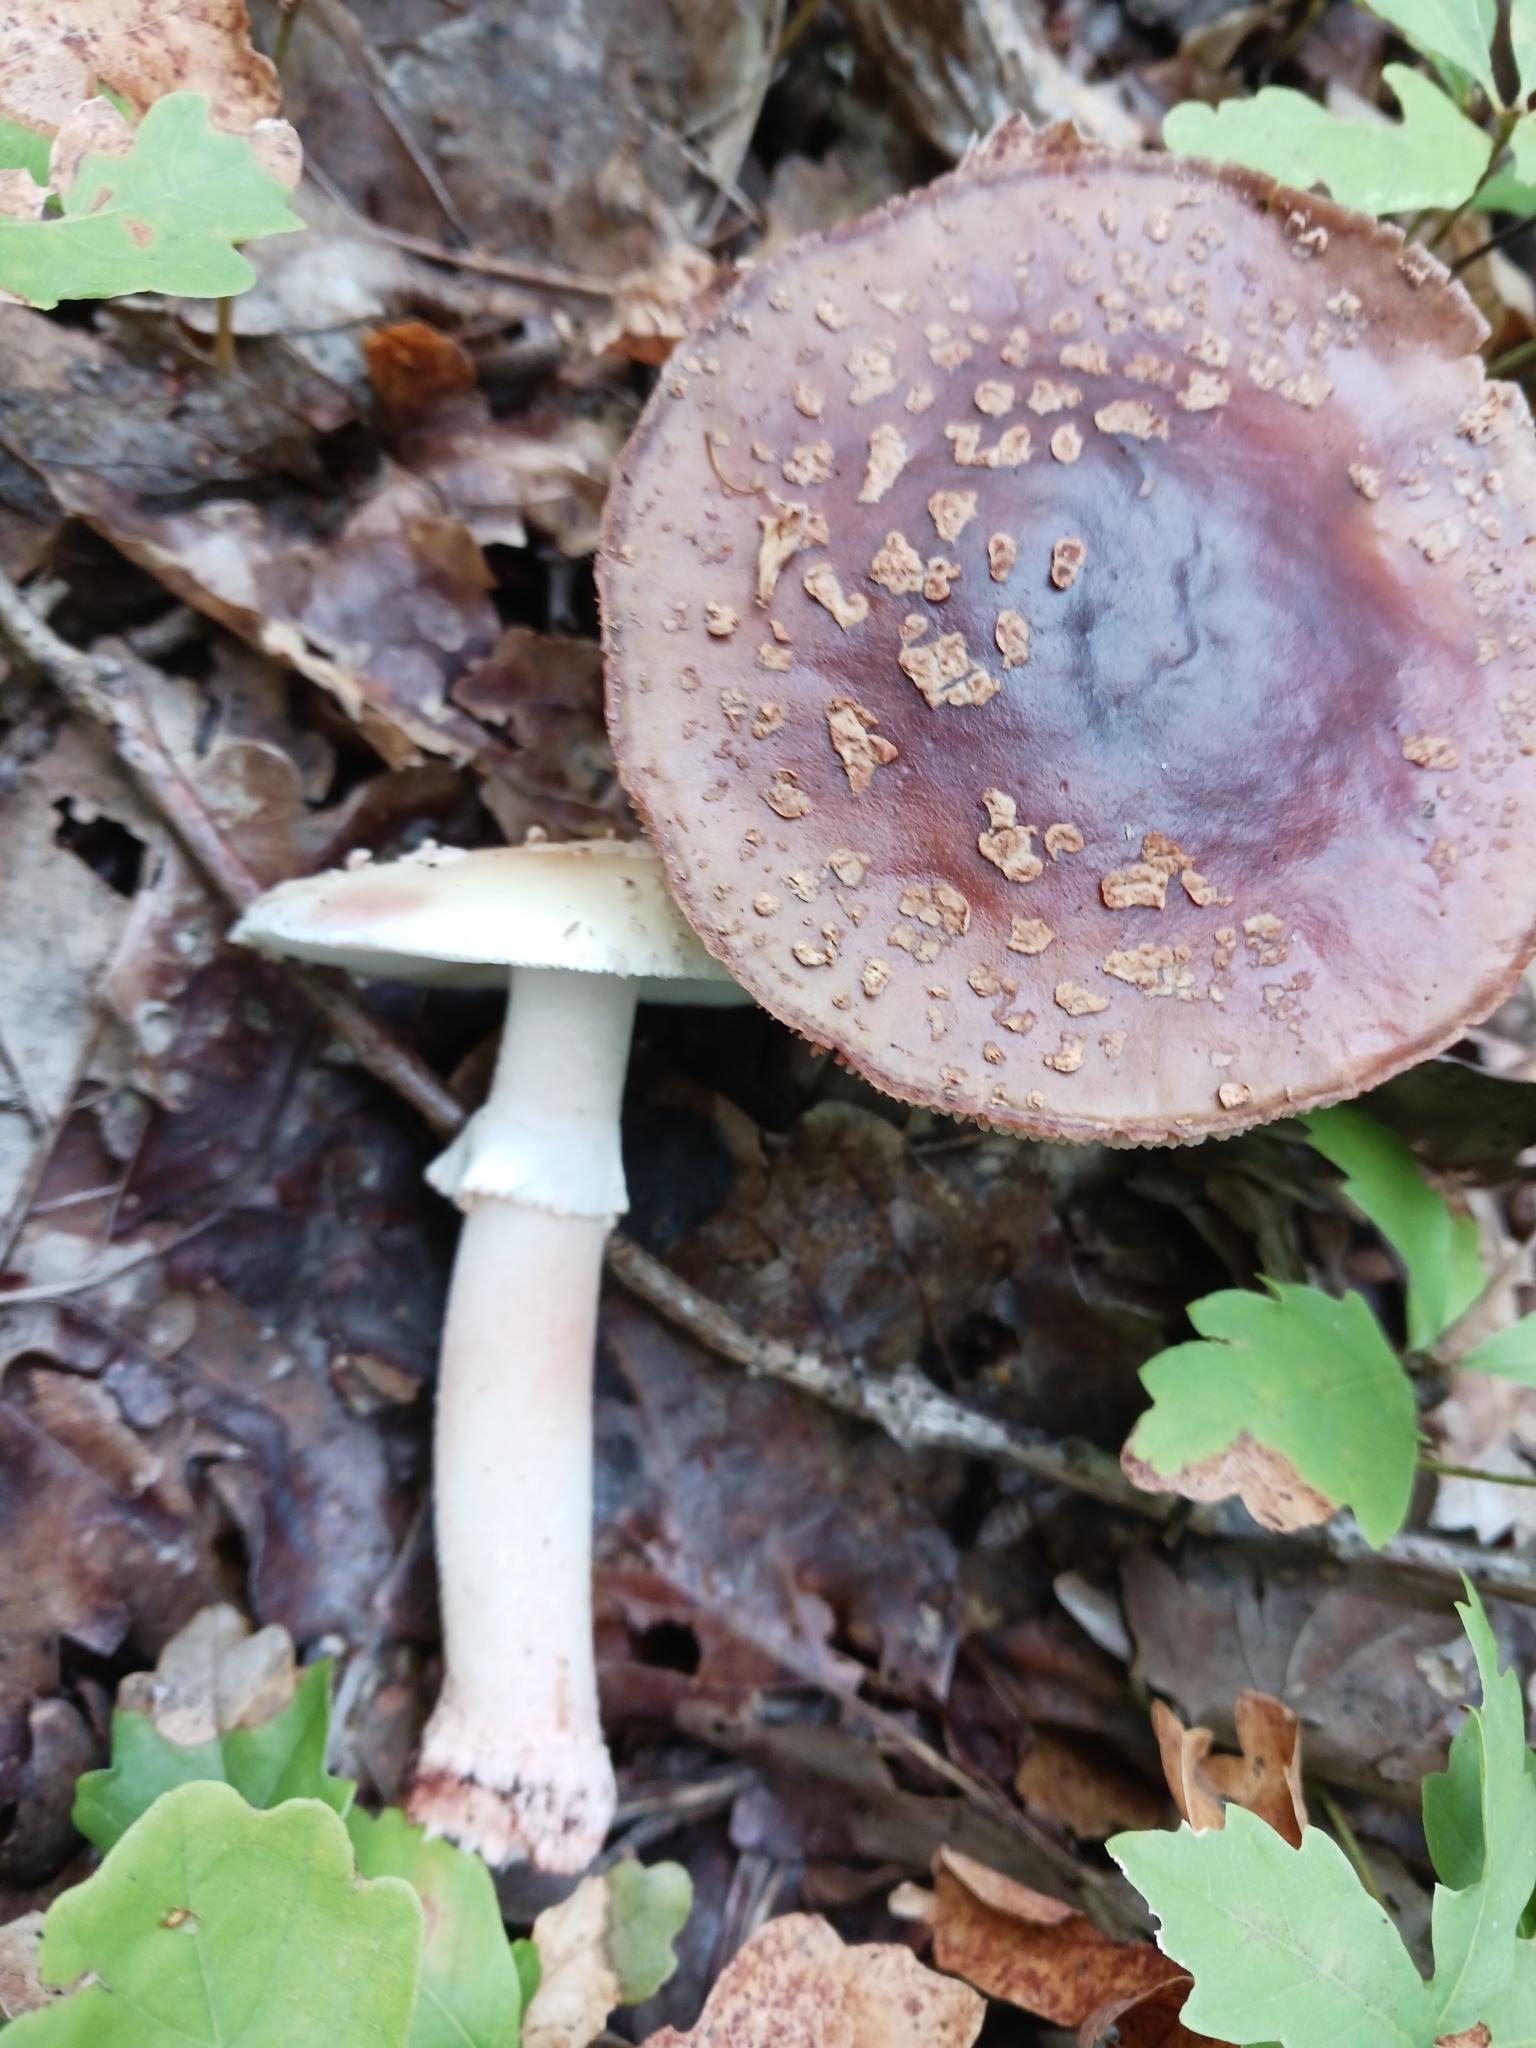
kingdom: Fungi
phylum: Basidiomycota
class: Agaricomycetes
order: Agaricales
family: Amanitaceae
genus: Amanita
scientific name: Amanita rubescens
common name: Blusher
